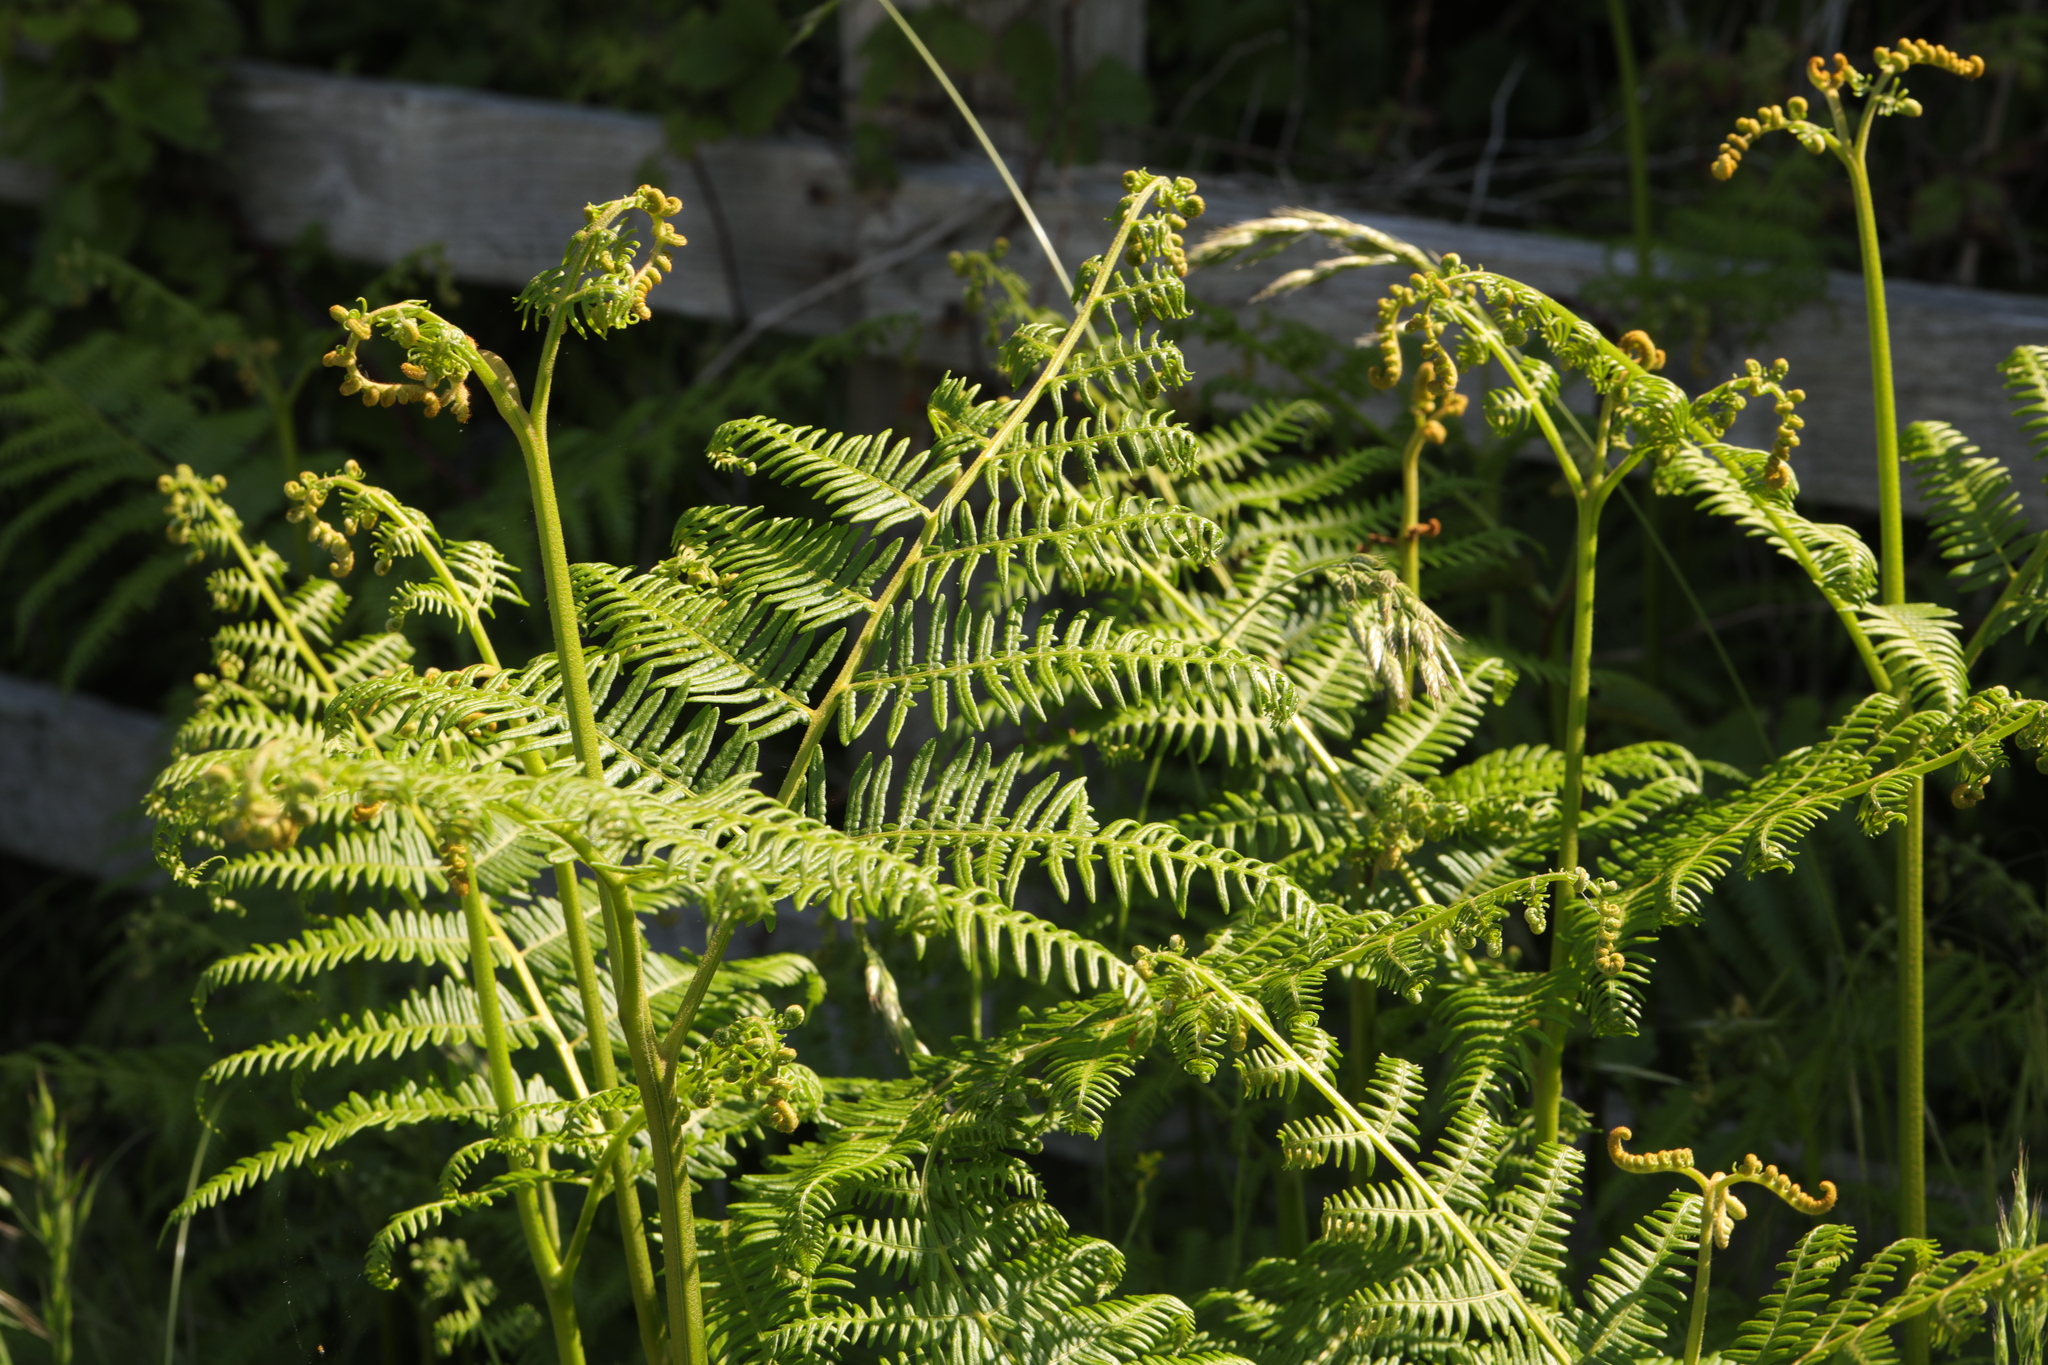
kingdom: Plantae
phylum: Tracheophyta
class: Polypodiopsida
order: Polypodiales
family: Dennstaedtiaceae
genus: Pteridium
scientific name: Pteridium aquilinum
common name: Bracken
